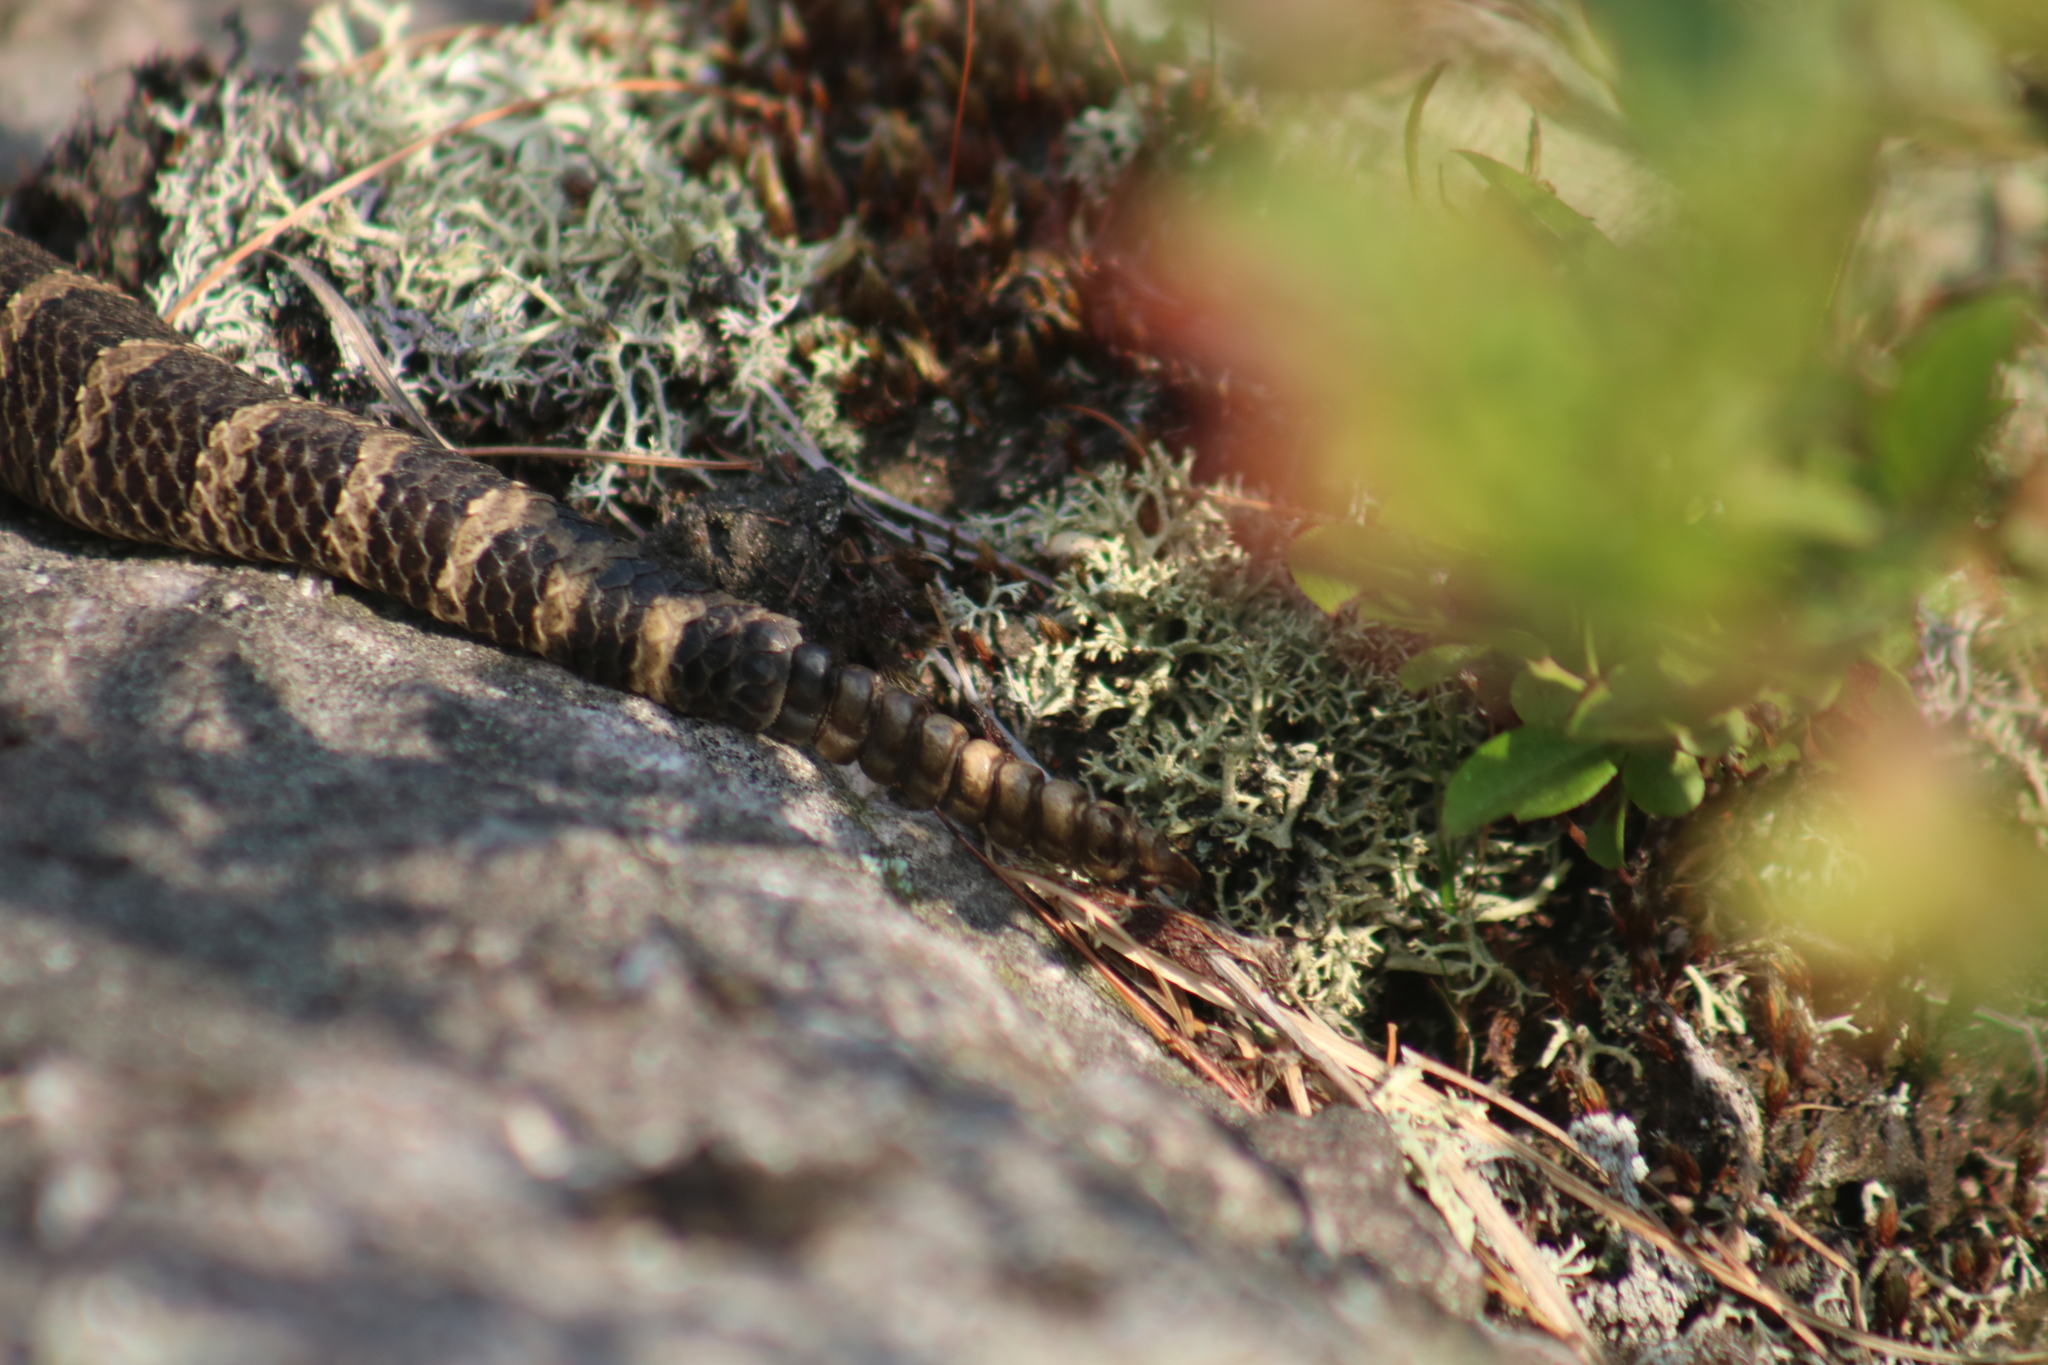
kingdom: Animalia
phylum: Chordata
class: Squamata
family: Viperidae
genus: Sistrurus
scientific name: Sistrurus catenatus
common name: Massasauga
